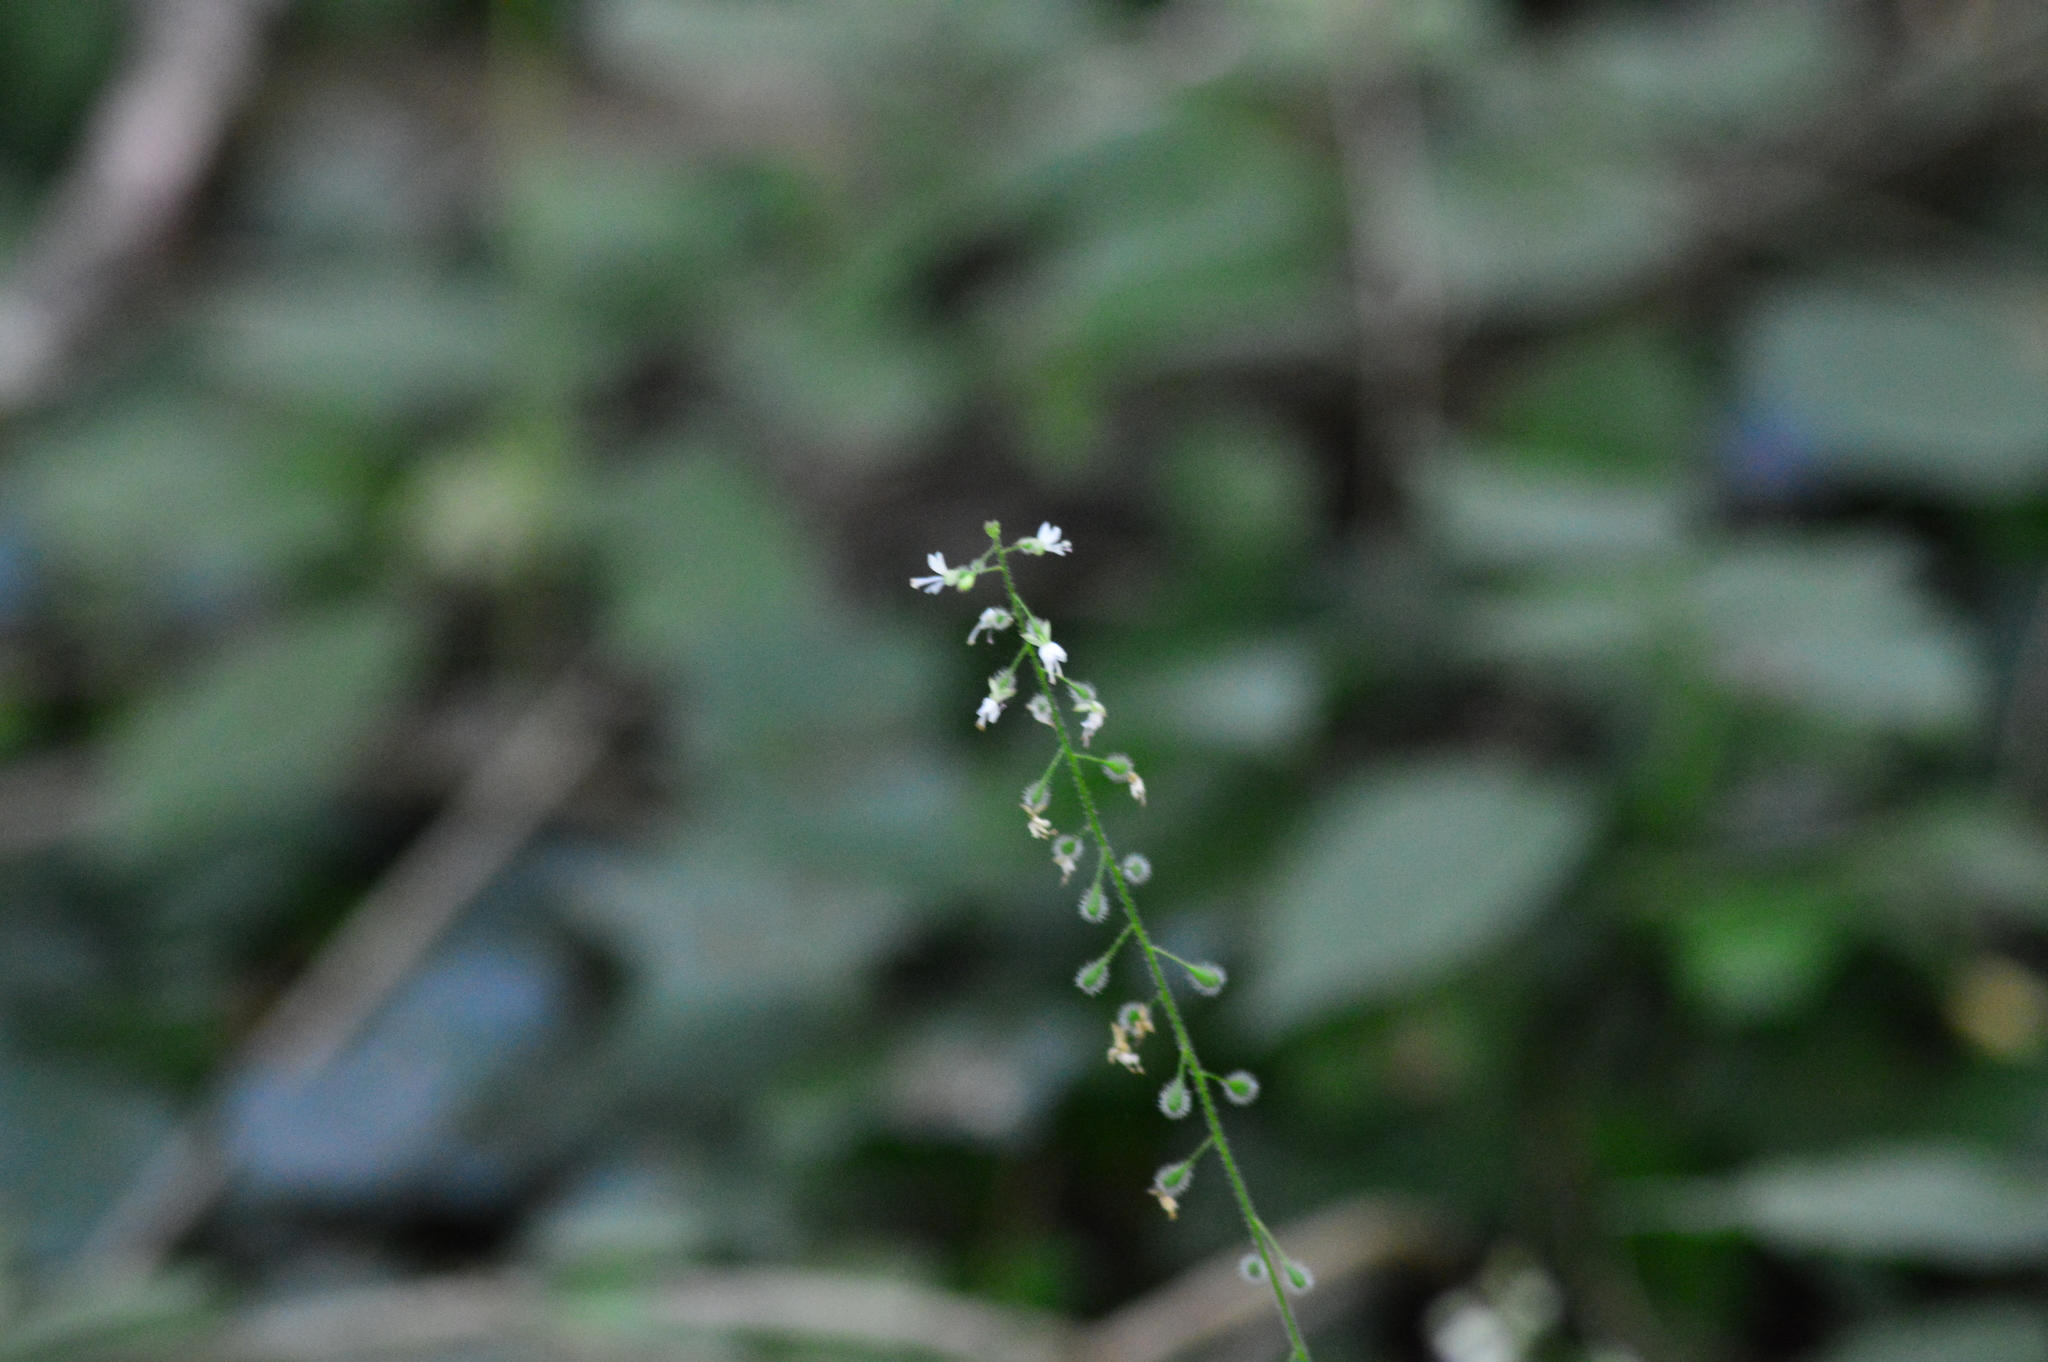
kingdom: Plantae
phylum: Tracheophyta
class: Magnoliopsida
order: Myrtales
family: Onagraceae
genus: Circaea
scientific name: Circaea lutetiana
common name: Enchanter's-nightshade
